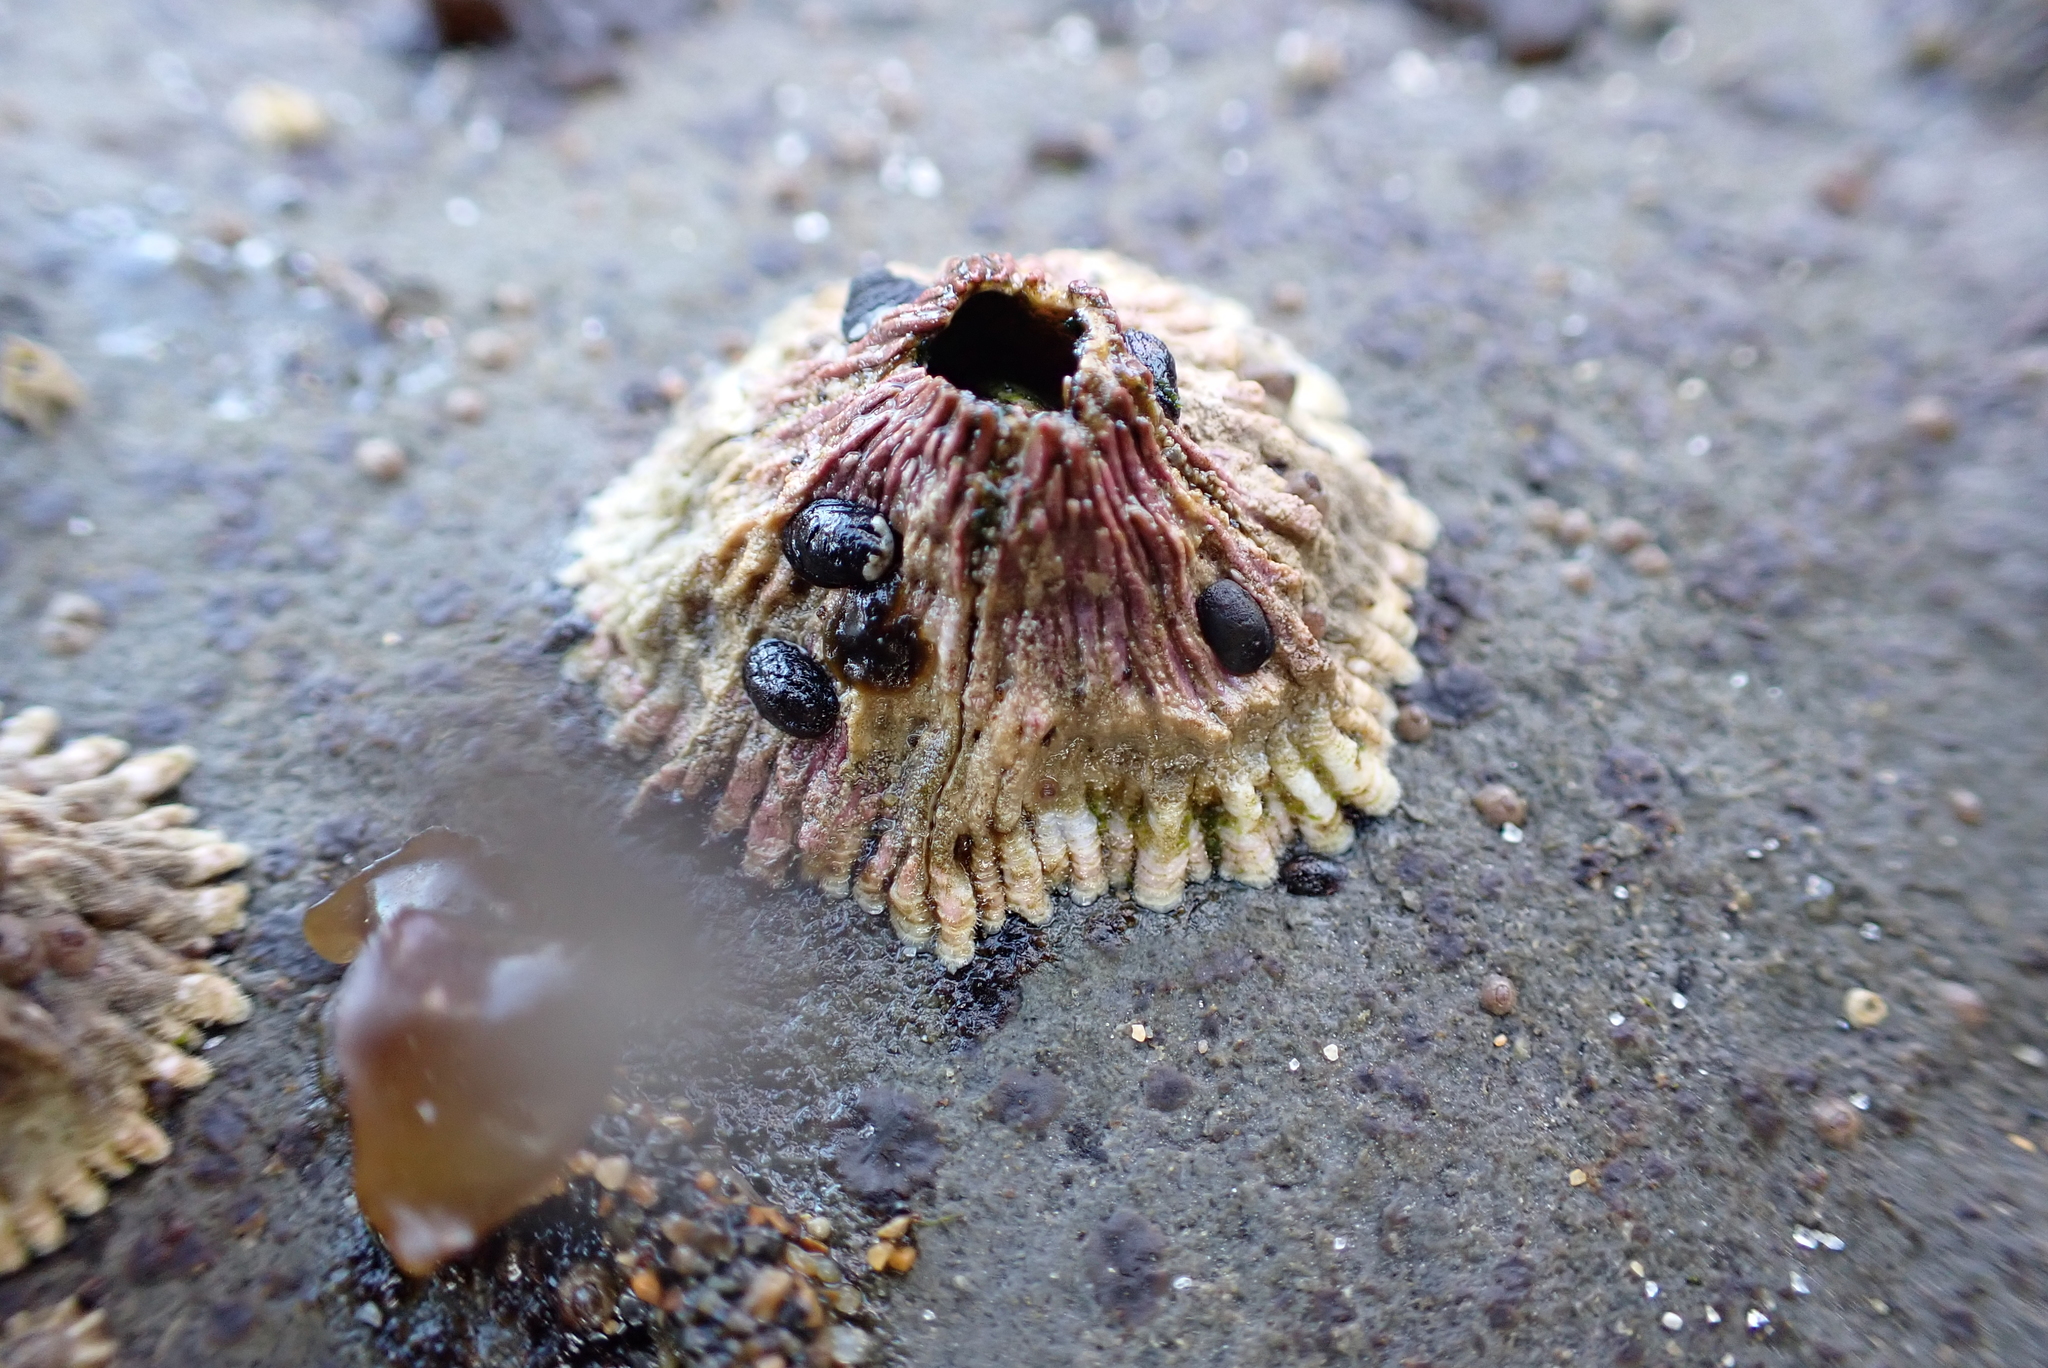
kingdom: Animalia
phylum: Arthropoda
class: Maxillopoda
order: Sessilia
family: Tetraclitidae
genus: Tetraclita
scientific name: Tetraclita rubescens
